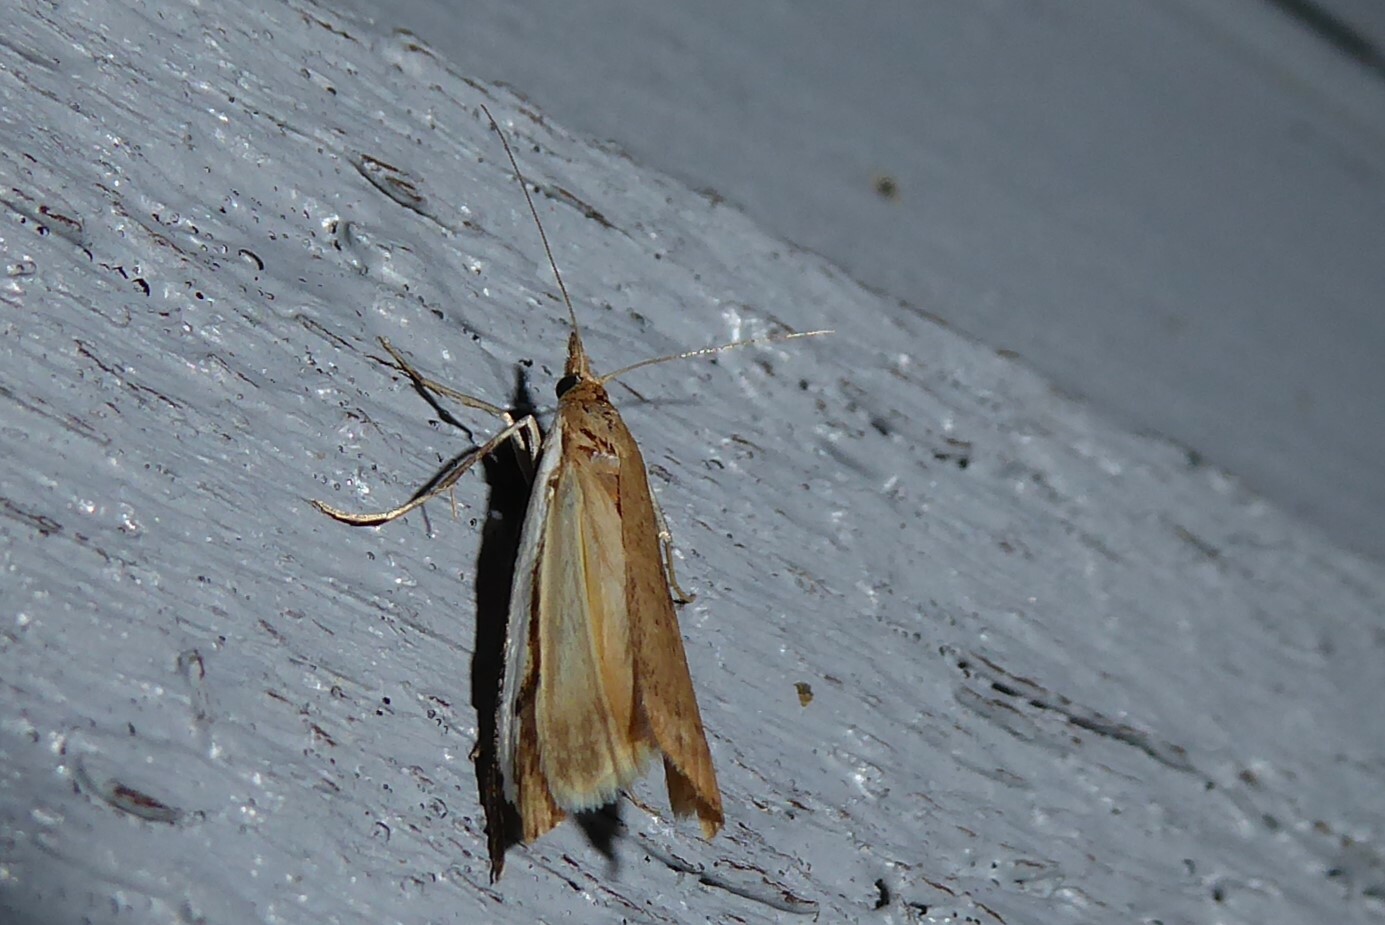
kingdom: Animalia
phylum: Arthropoda
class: Insecta
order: Lepidoptera
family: Crambidae
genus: Orocrambus
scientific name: Orocrambus flexuosellus
